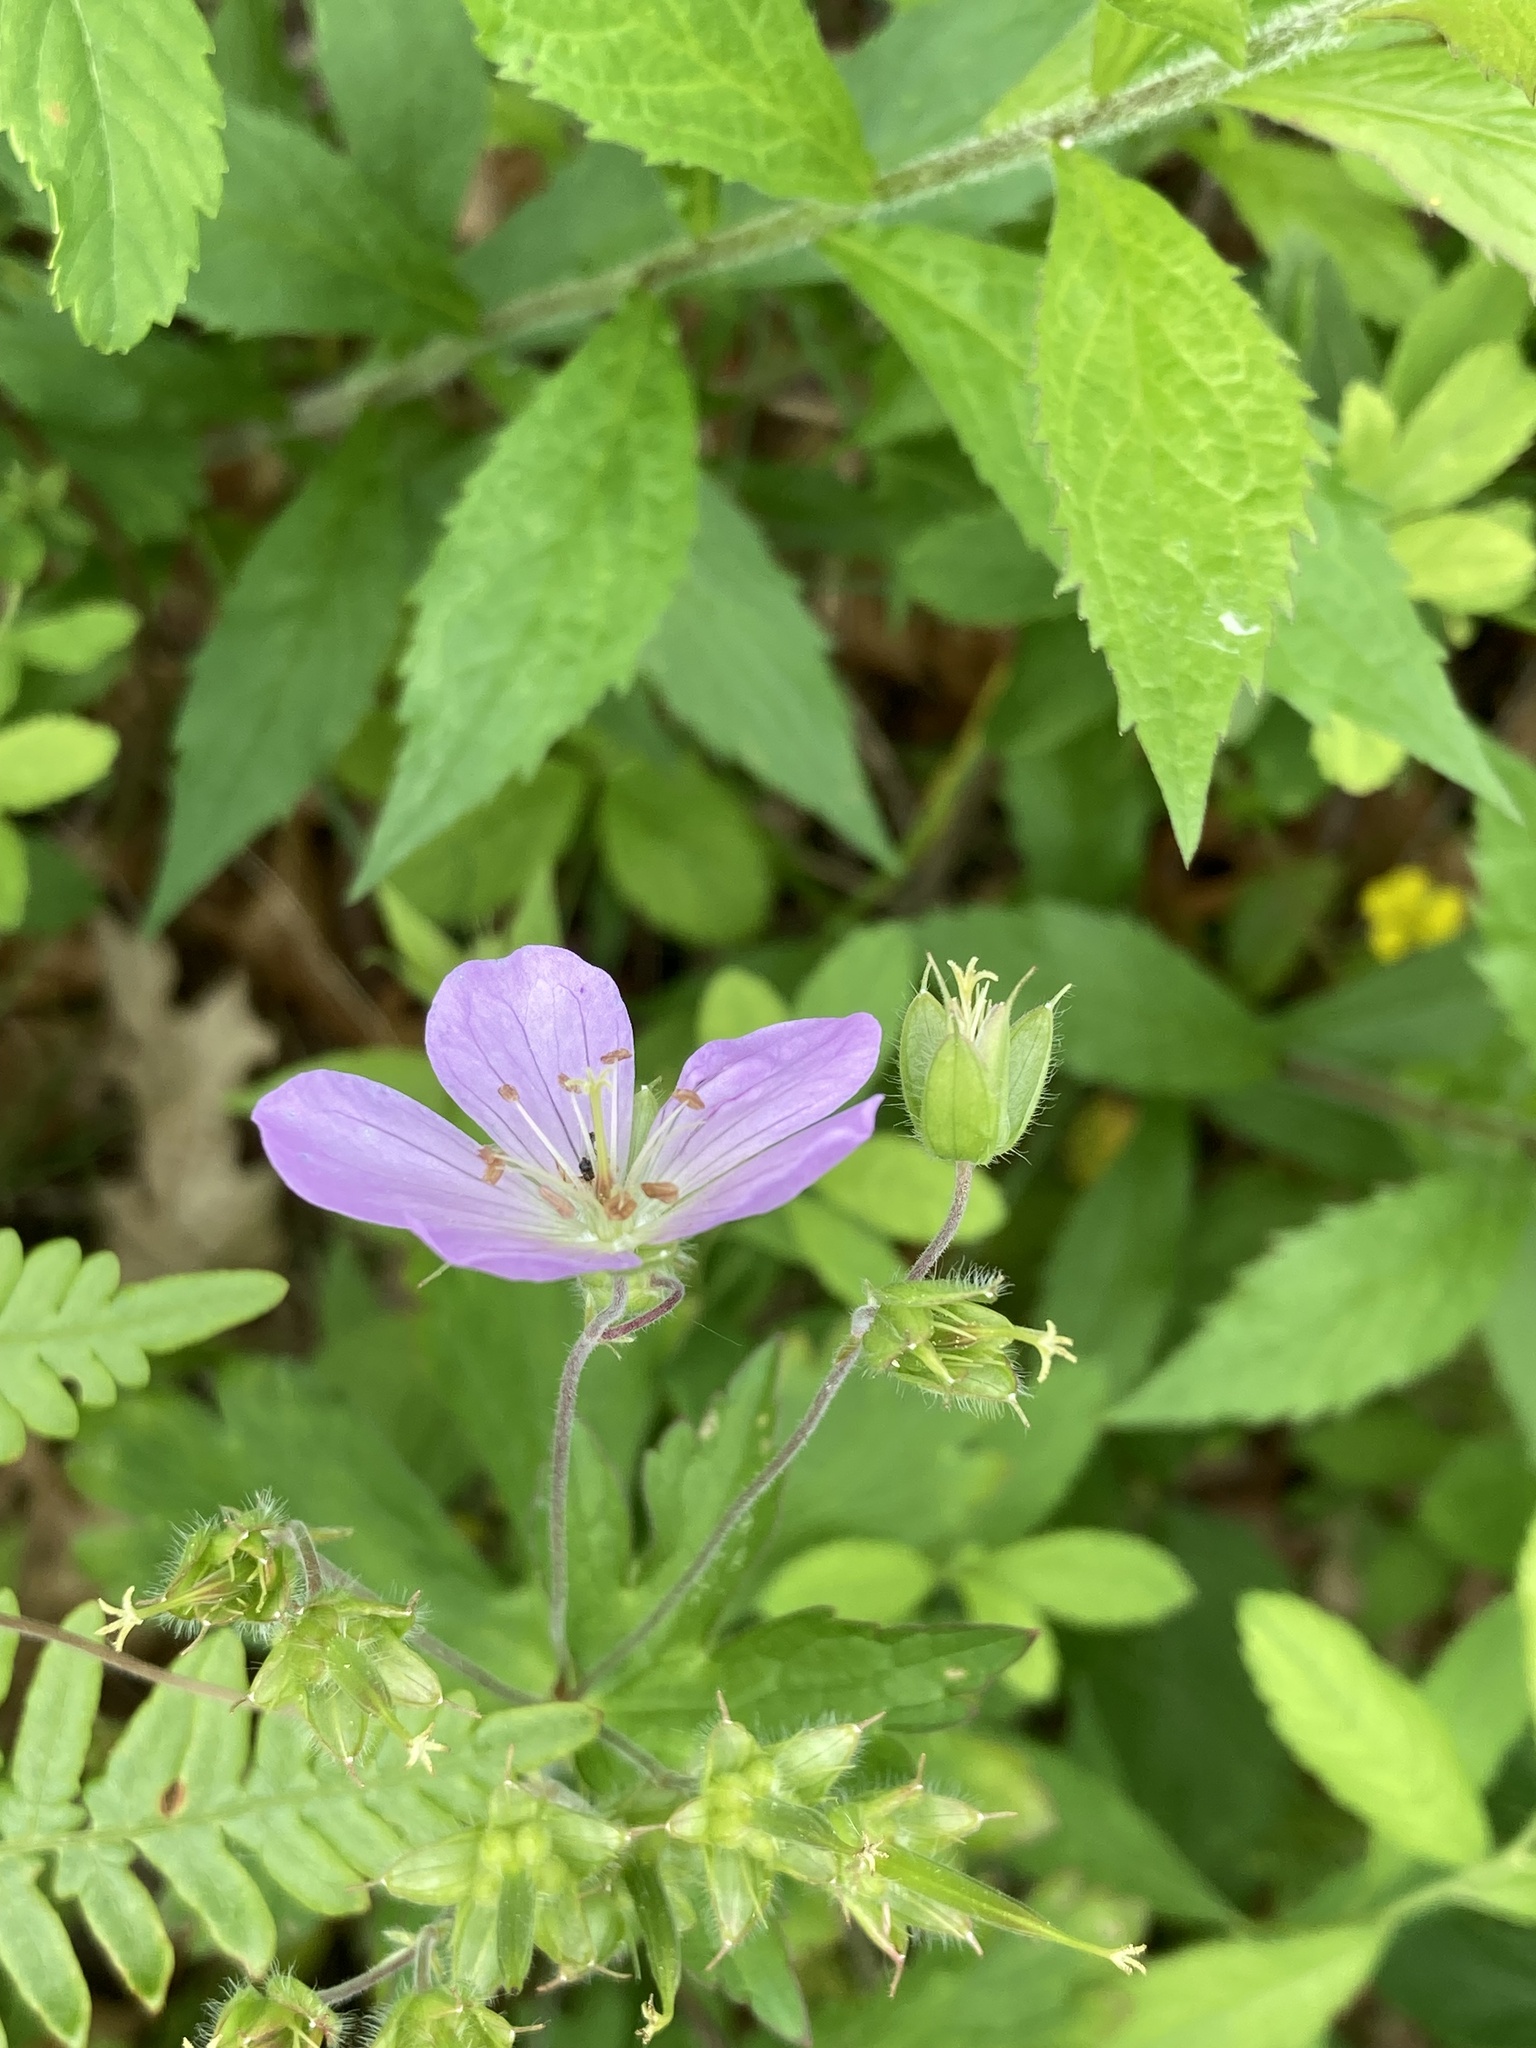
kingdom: Plantae
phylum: Tracheophyta
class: Magnoliopsida
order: Geraniales
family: Geraniaceae
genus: Geranium
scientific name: Geranium maculatum
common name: Spotted geranium
